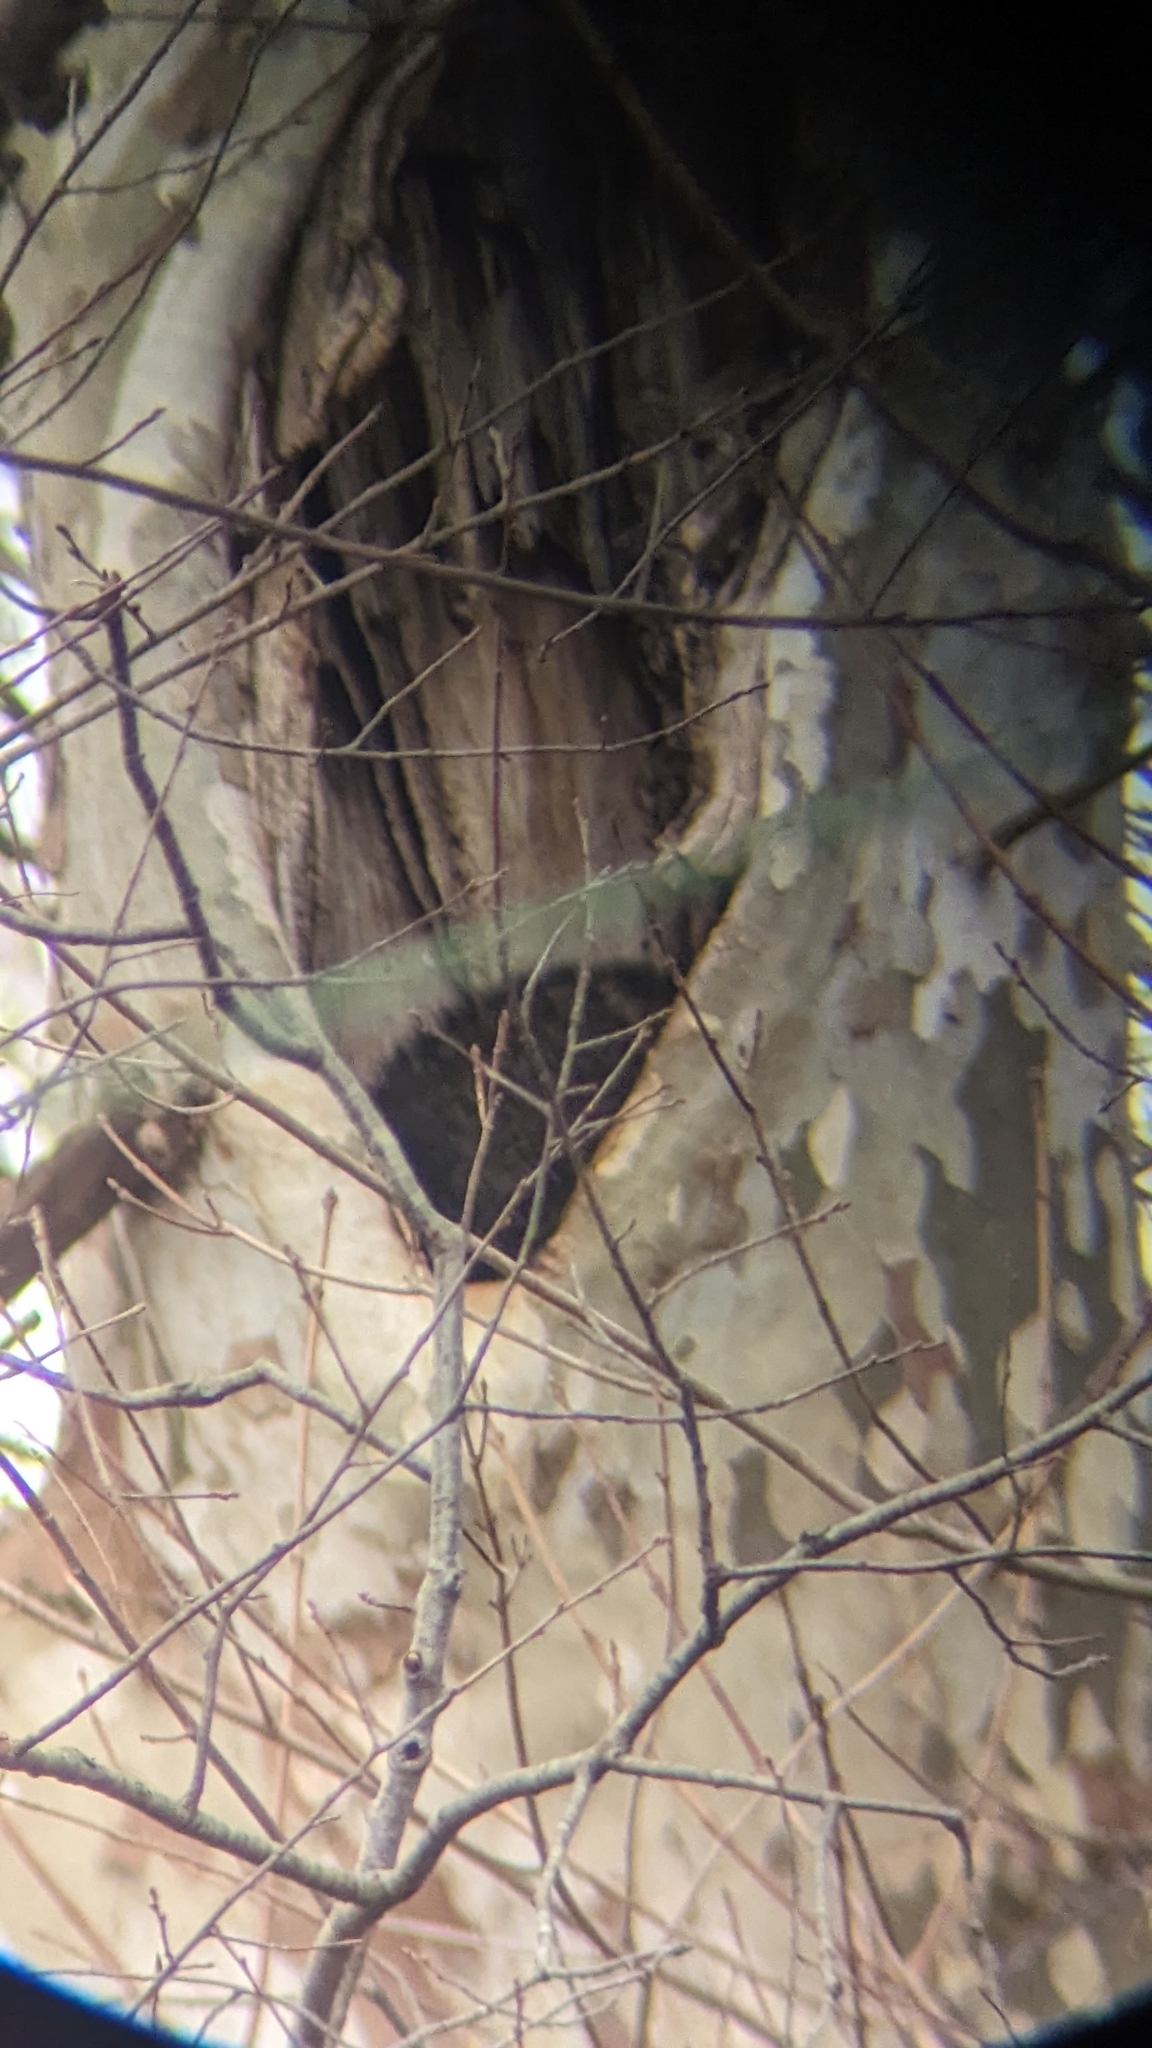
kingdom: Animalia
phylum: Chordata
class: Mammalia
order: Carnivora
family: Procyonidae
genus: Procyon
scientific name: Procyon lotor
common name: Raccoon
